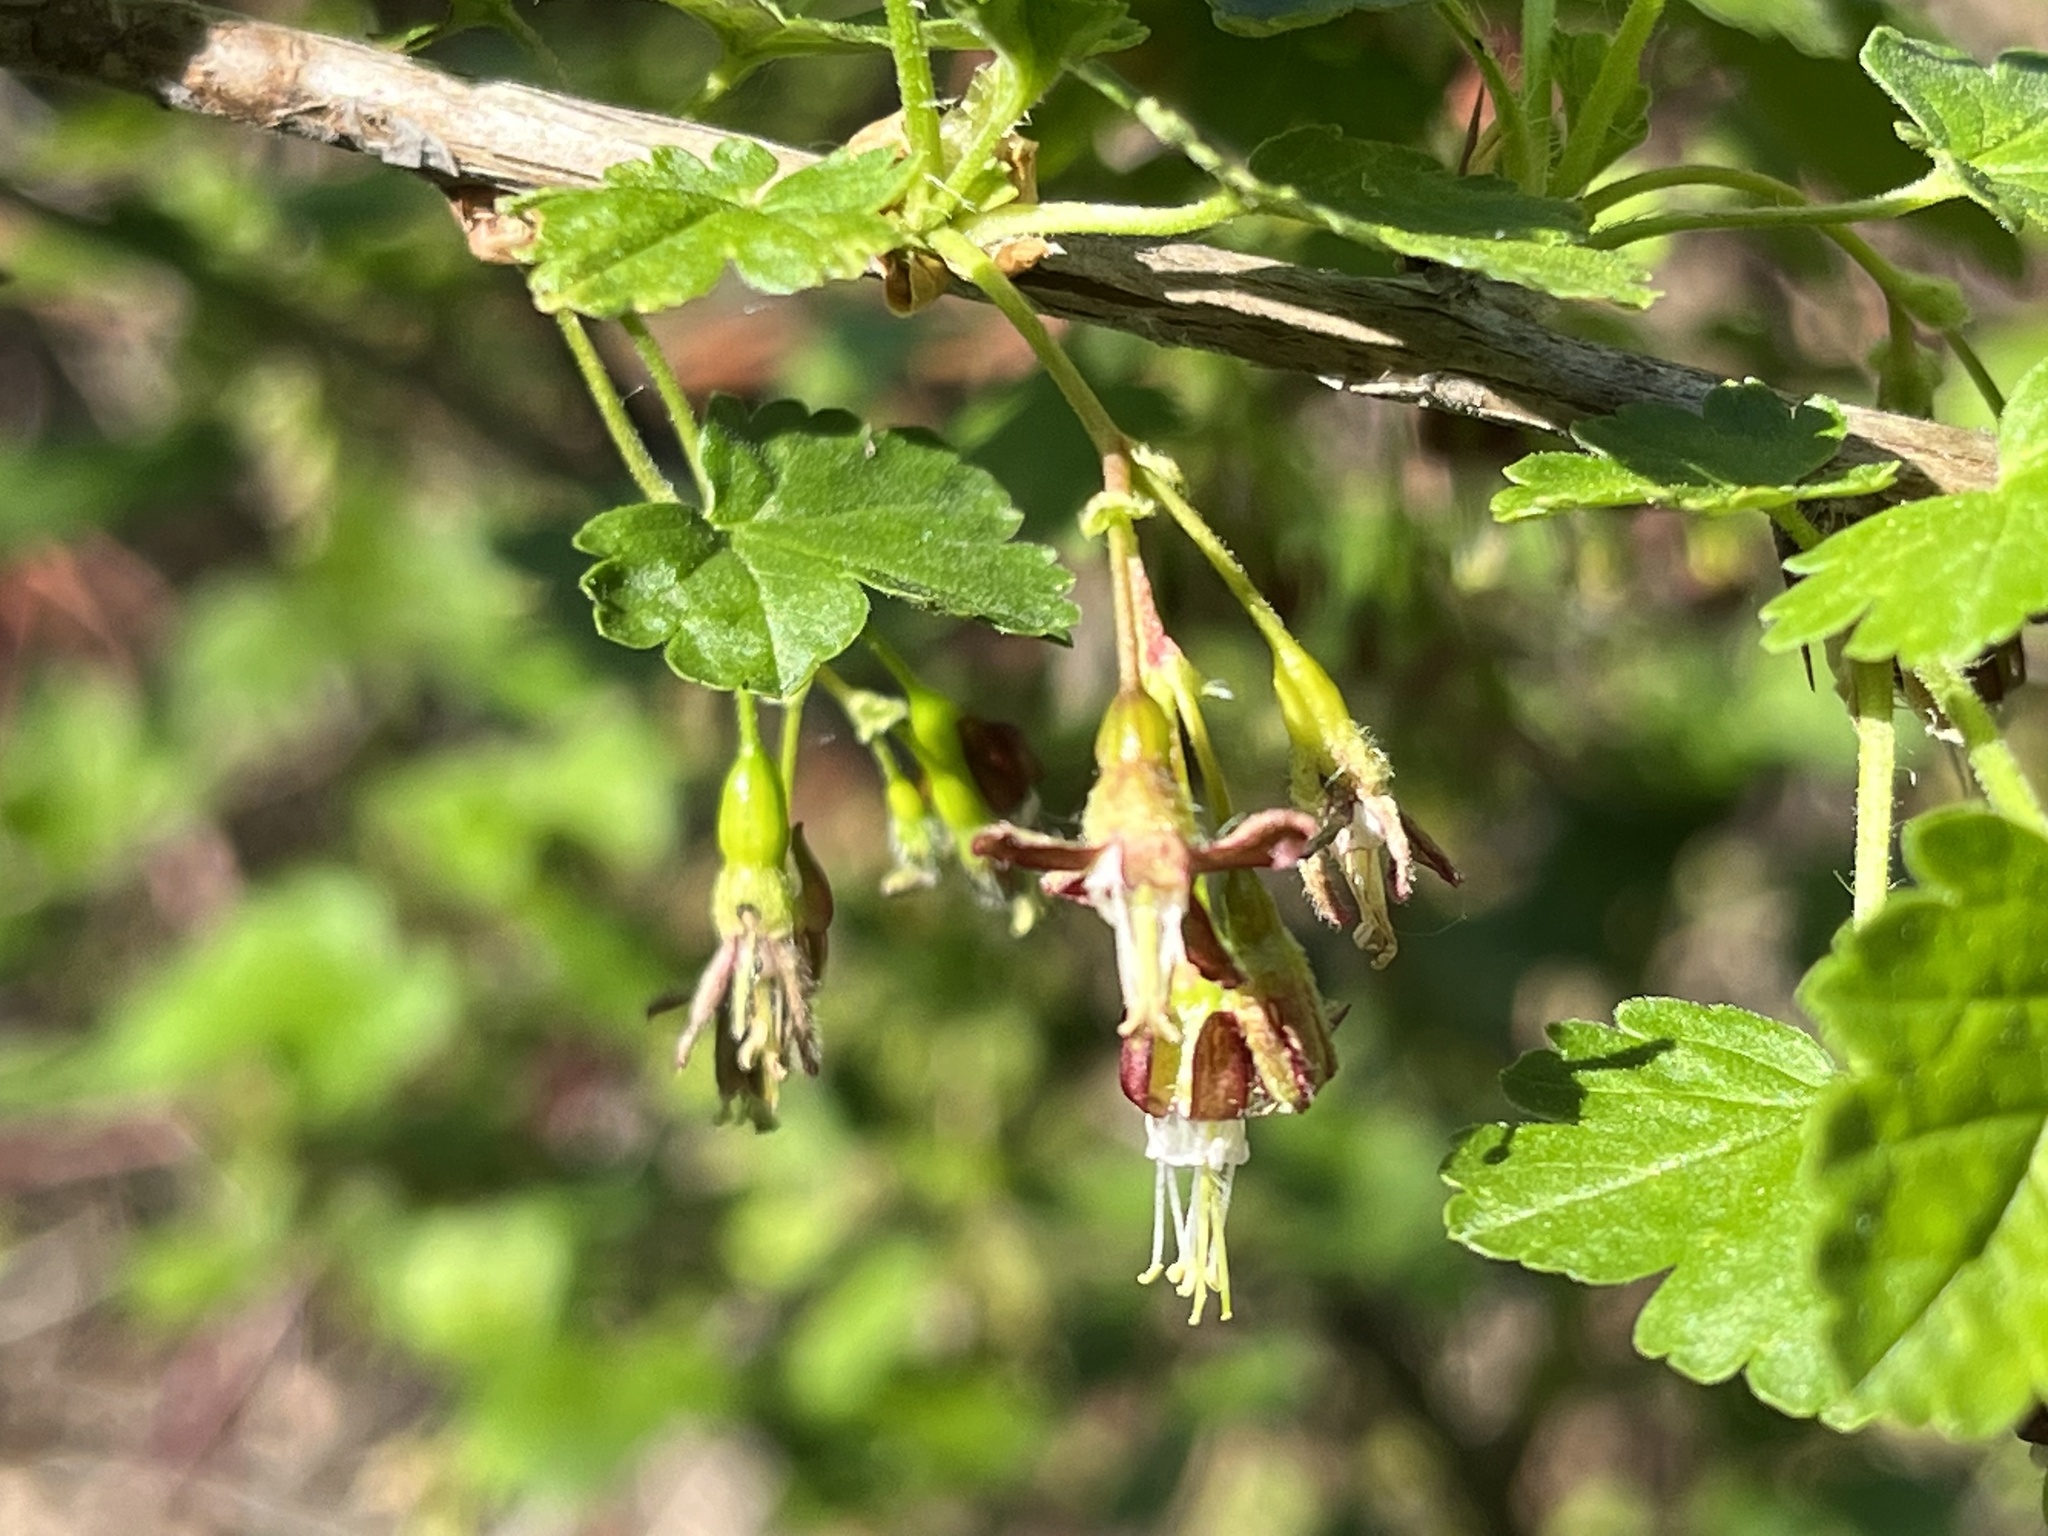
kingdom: Plantae
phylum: Tracheophyta
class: Magnoliopsida
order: Saxifragales
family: Grossulariaceae
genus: Ribes
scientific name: Ribes divaricatum
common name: Wild black gooseberry
